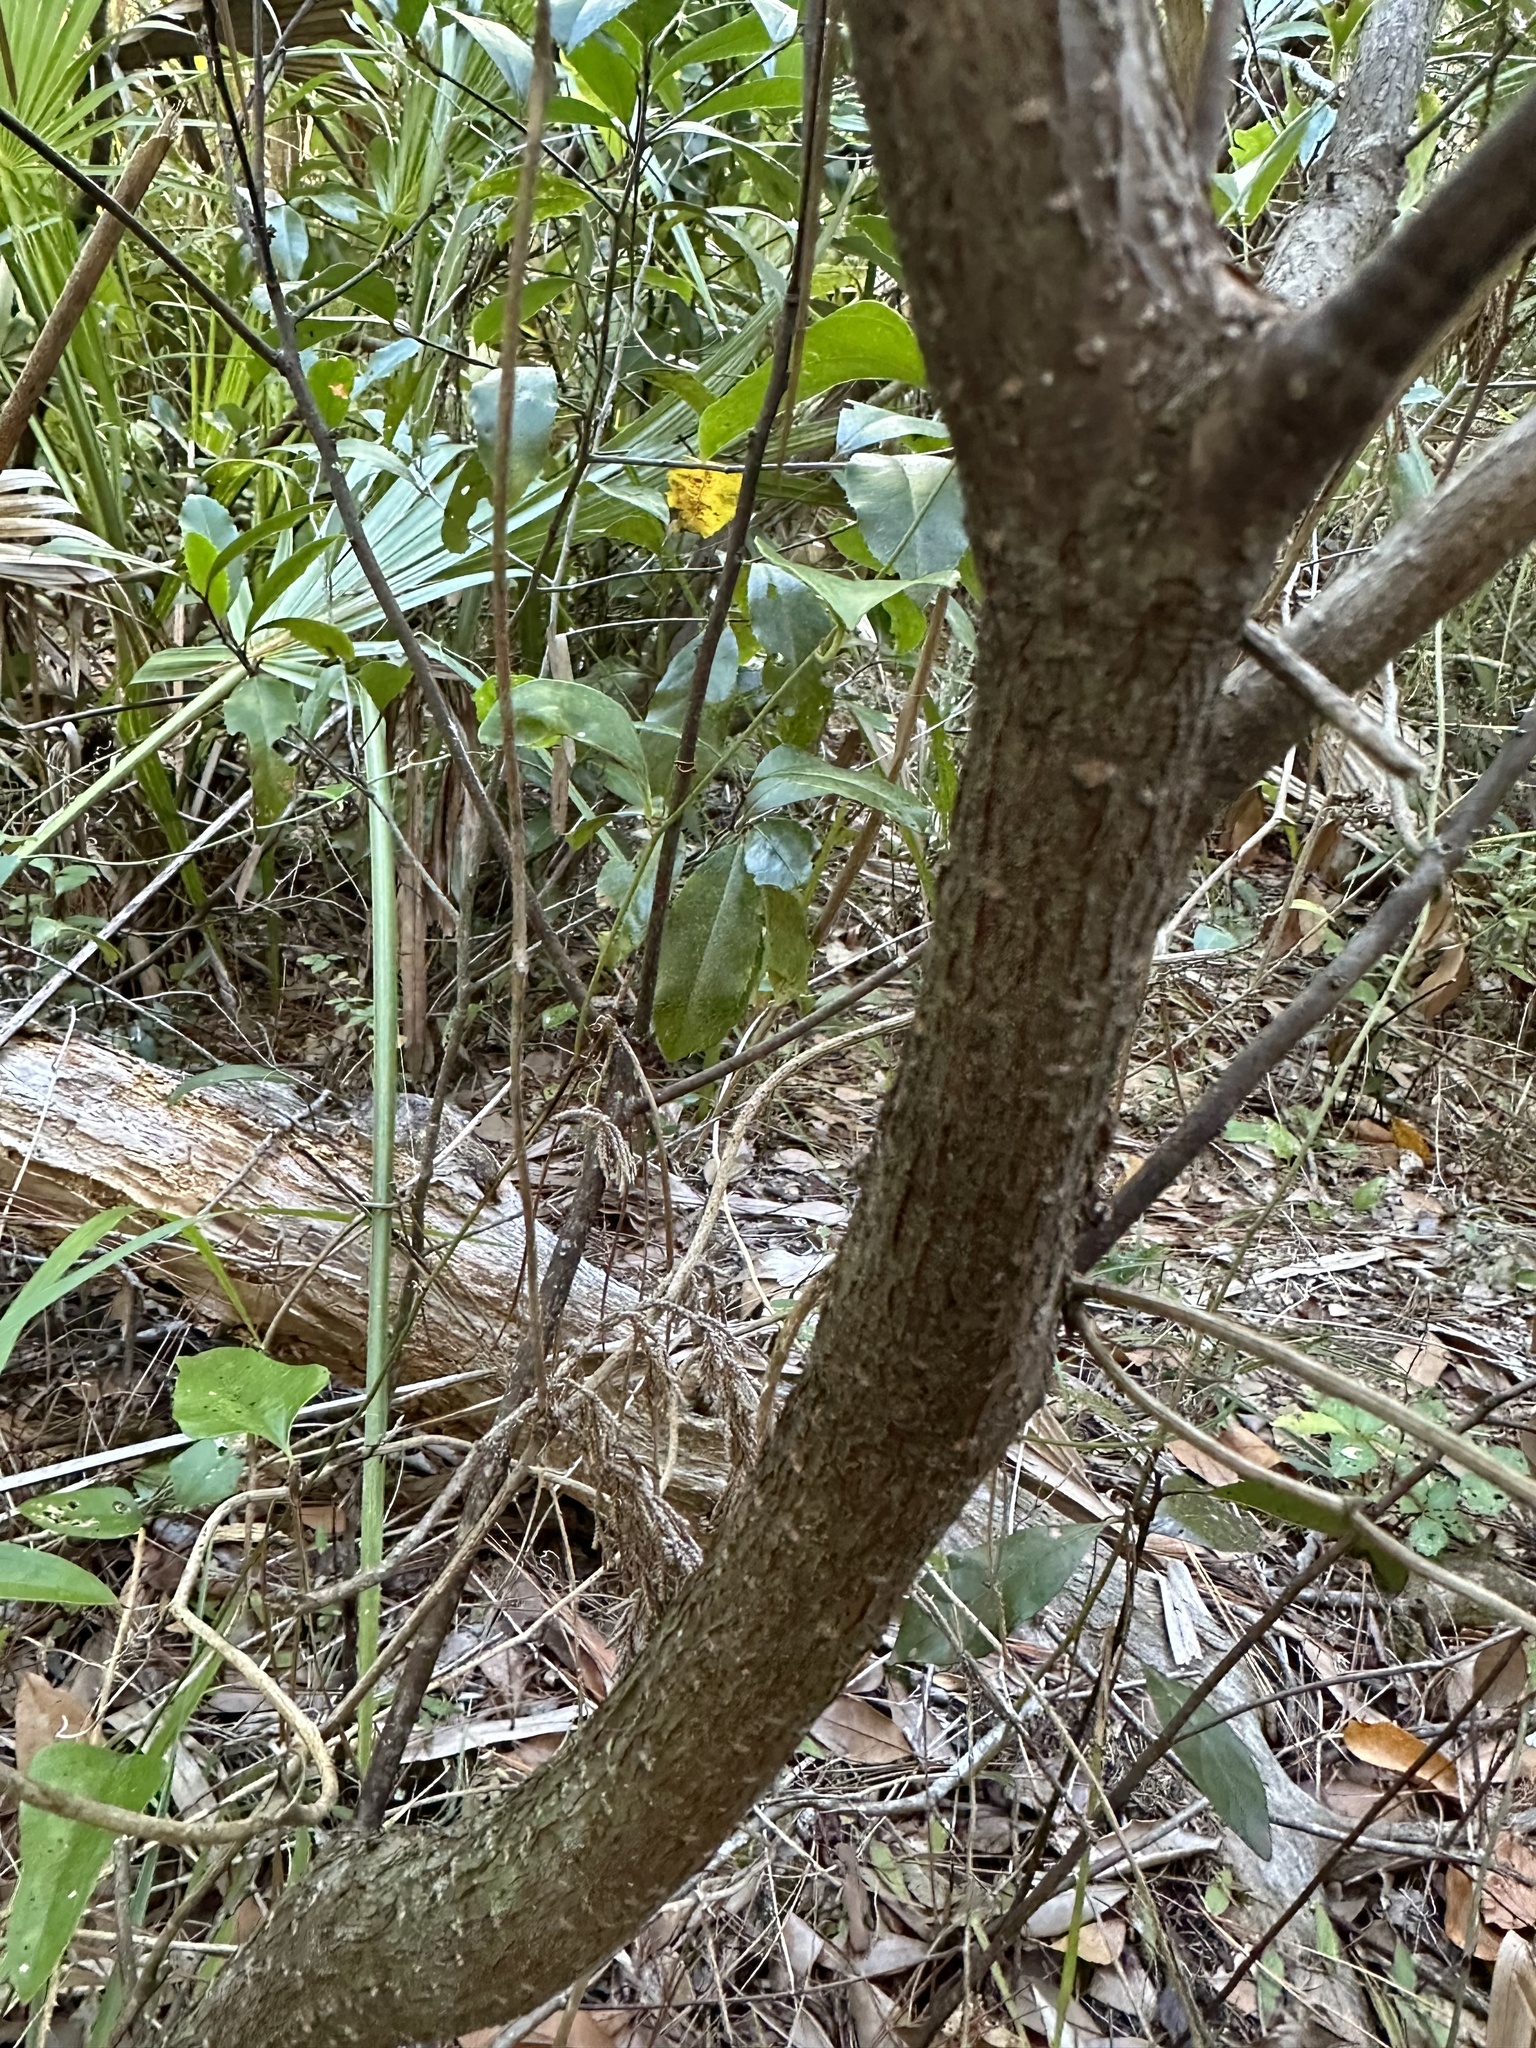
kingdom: Plantae
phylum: Tracheophyta
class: Magnoliopsida
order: Ericales
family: Ericaceae
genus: Lyonia
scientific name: Lyonia ferruginea
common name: Rusty lyonia
